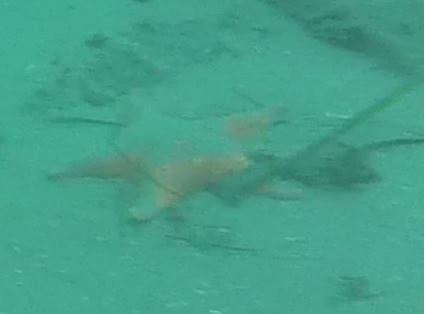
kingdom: Animalia
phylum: Echinodermata
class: Asteroidea
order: Valvatida
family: Asterinidae
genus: Patiria
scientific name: Patiria miniata
